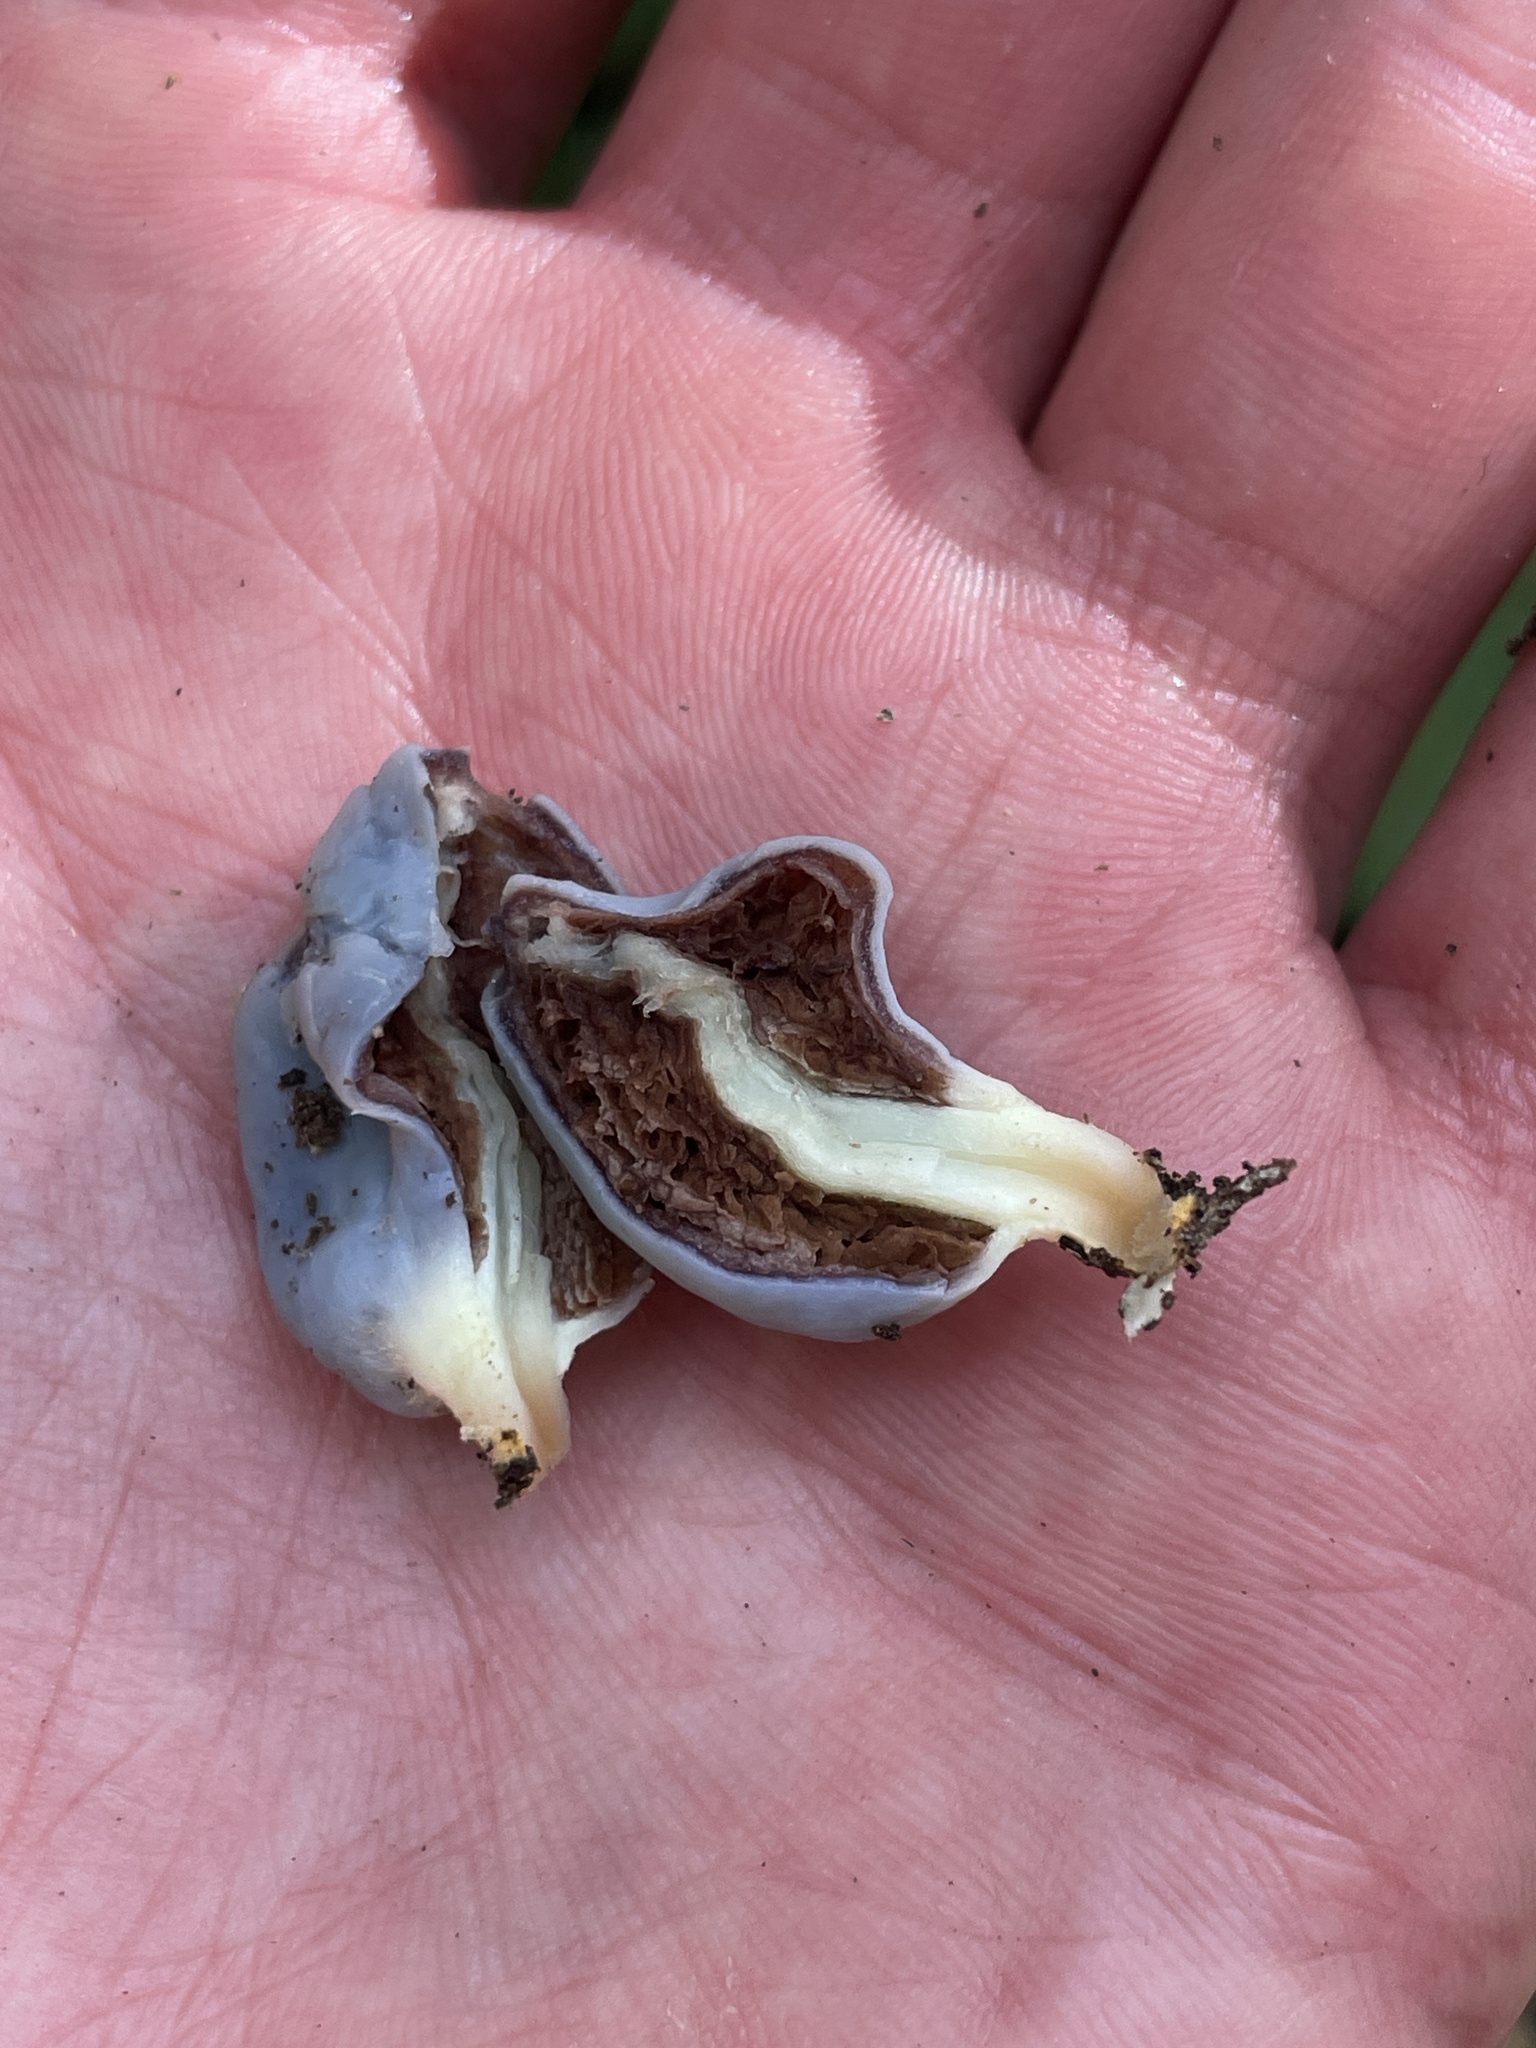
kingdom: Fungi
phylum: Basidiomycota
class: Agaricomycetes
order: Agaricales
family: Agaricaceae
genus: Clavogaster
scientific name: Clavogaster virescens
